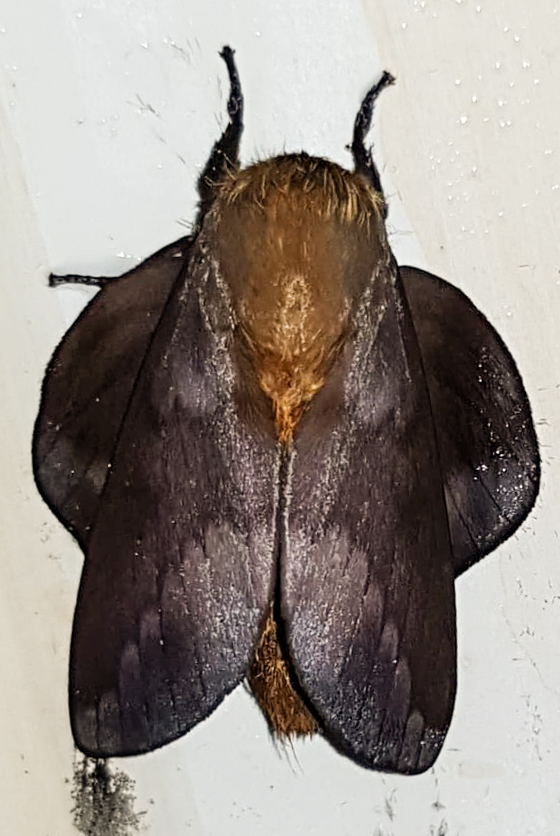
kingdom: Animalia
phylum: Arthropoda
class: Insecta
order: Lepidoptera
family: Saturniidae
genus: Ptiloscola
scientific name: Ptiloscola photophila
